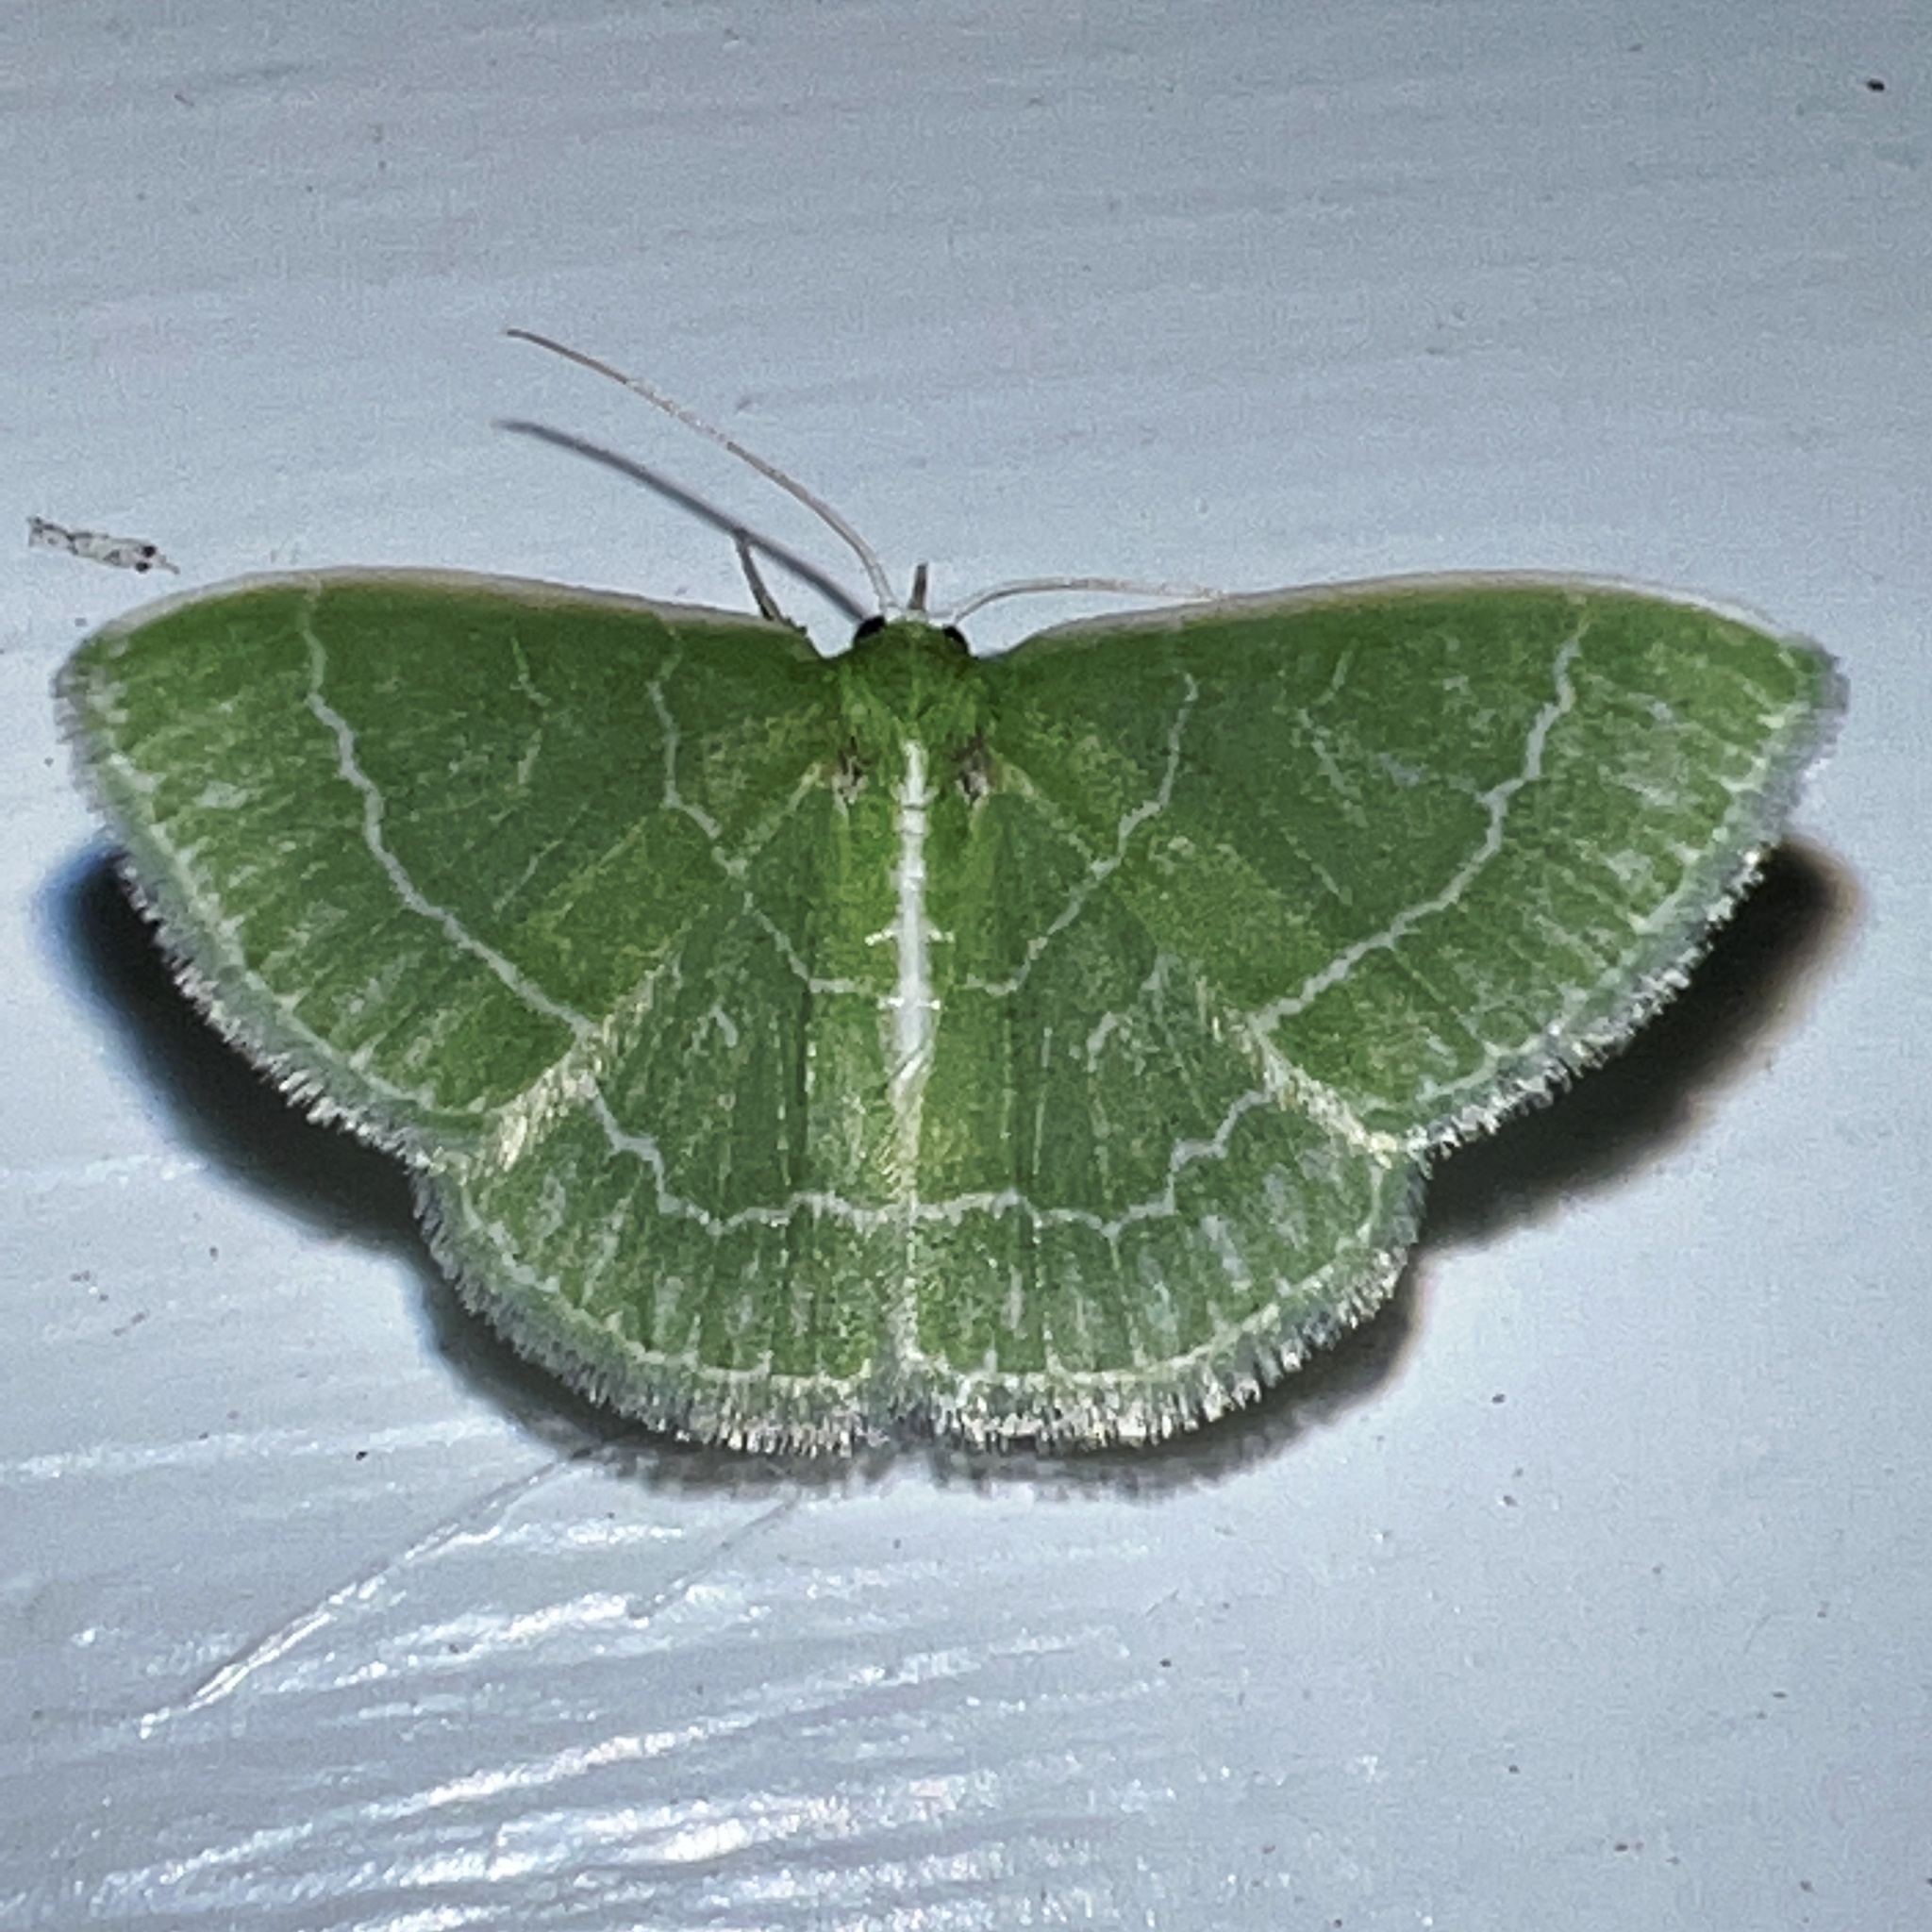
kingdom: Animalia
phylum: Arthropoda
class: Insecta
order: Lepidoptera
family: Geometridae
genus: Synchlora
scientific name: Synchlora aerata
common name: Wavy-lined emerald
